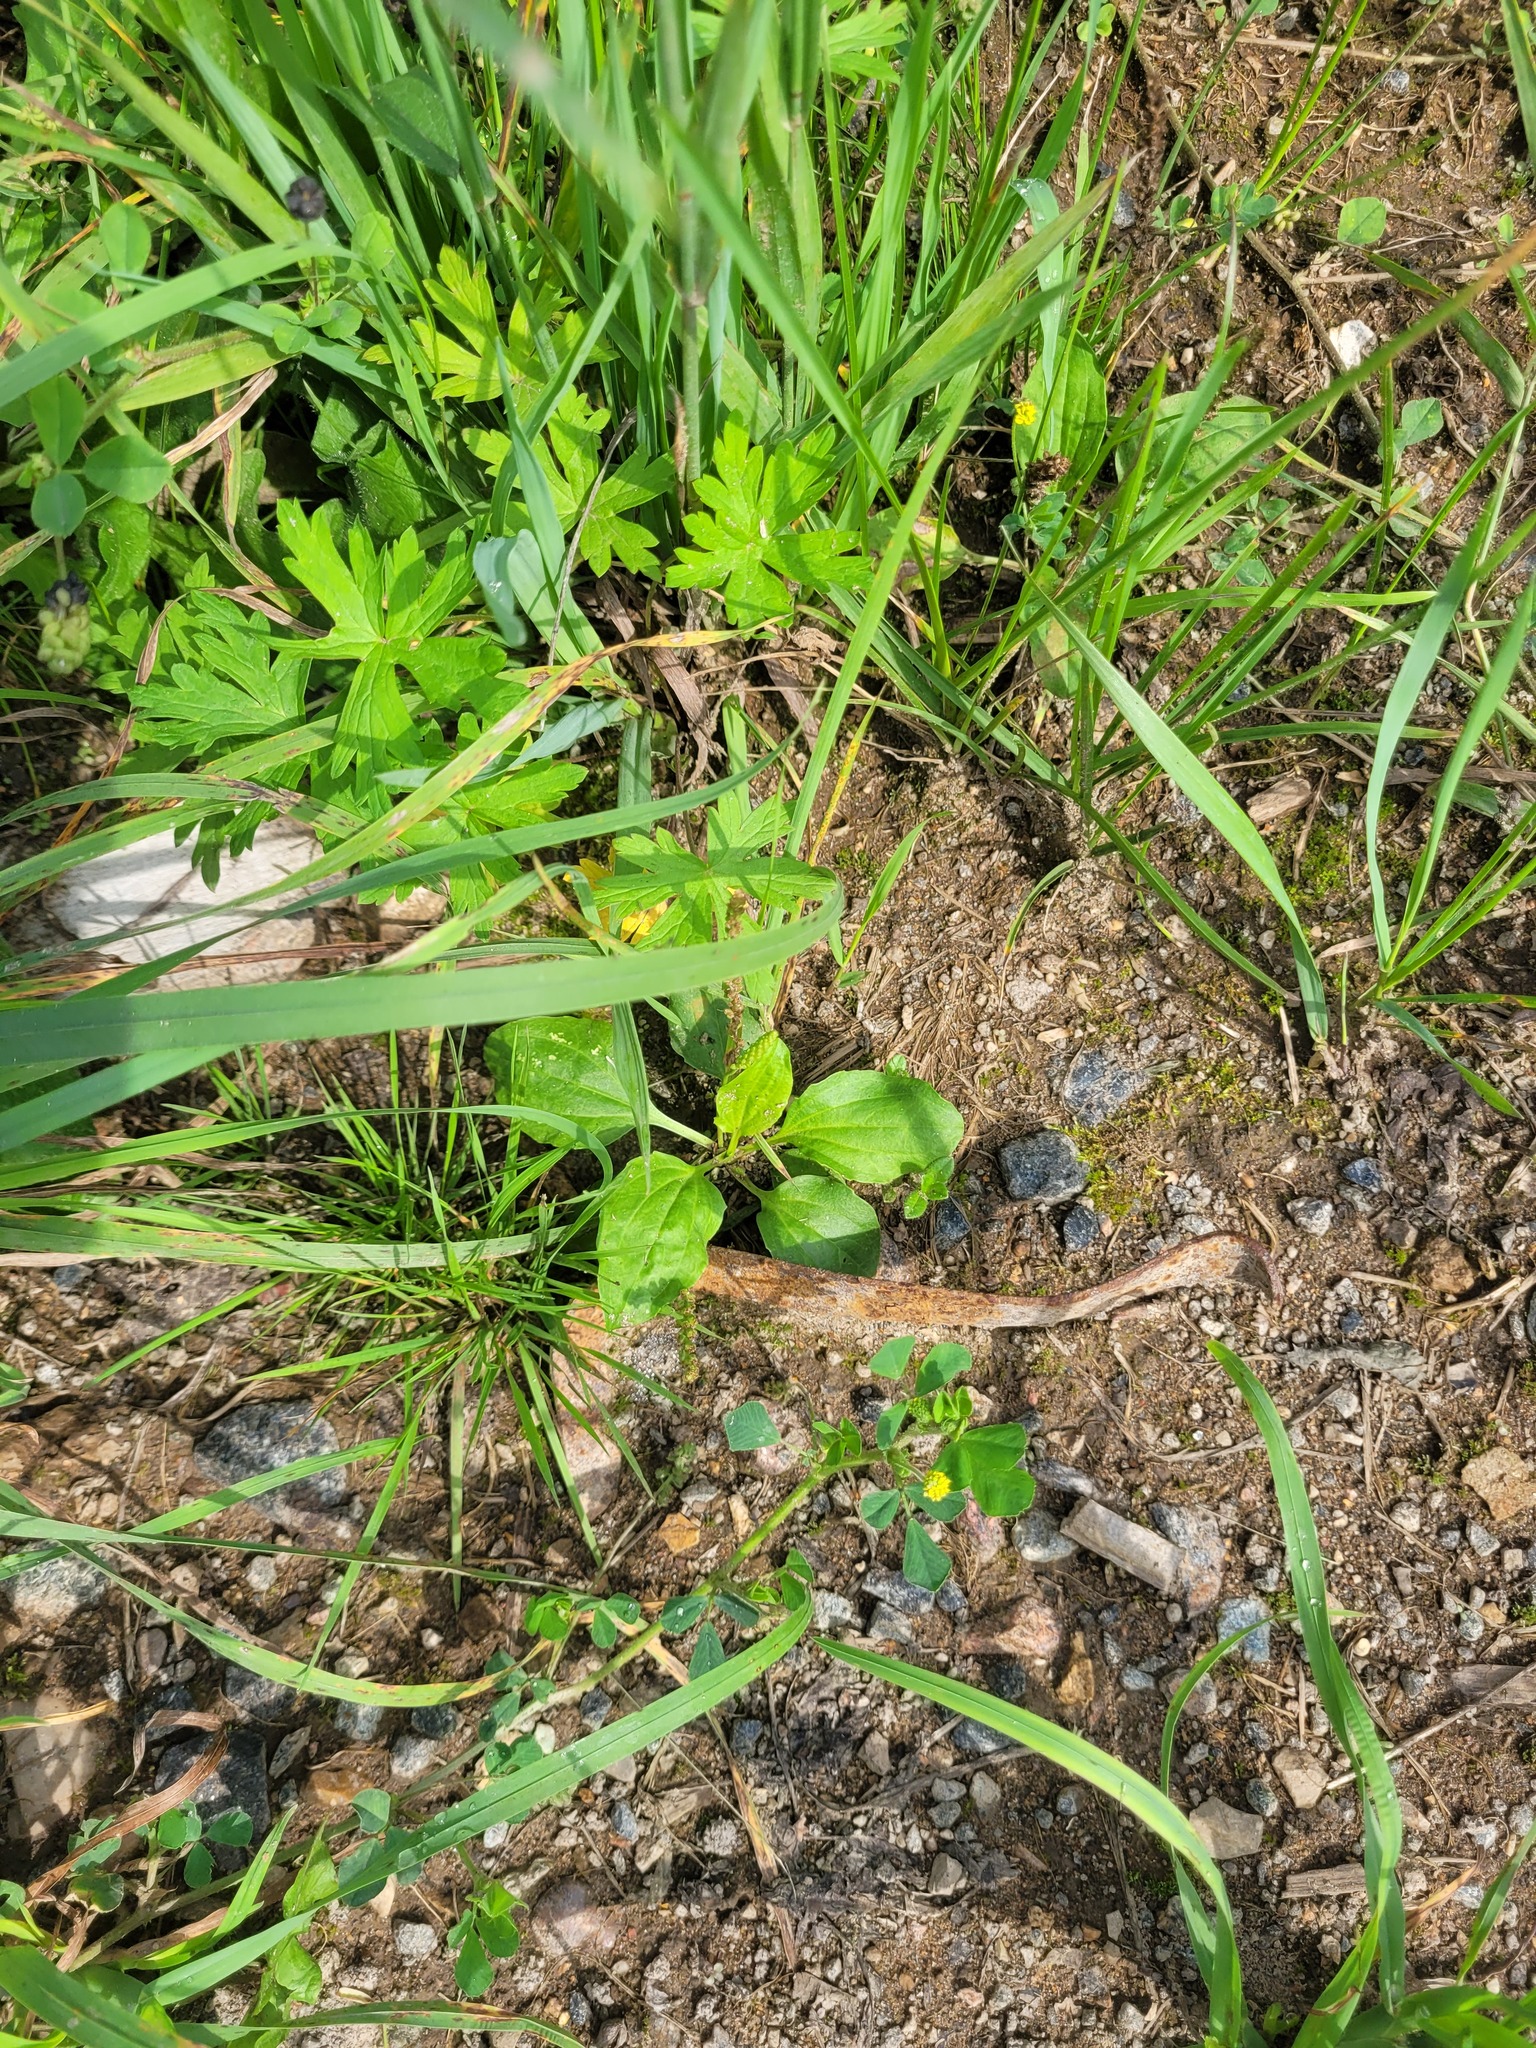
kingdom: Plantae
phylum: Tracheophyta
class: Magnoliopsida
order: Lamiales
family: Plantaginaceae
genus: Plantago
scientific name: Plantago major
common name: Common plantain
